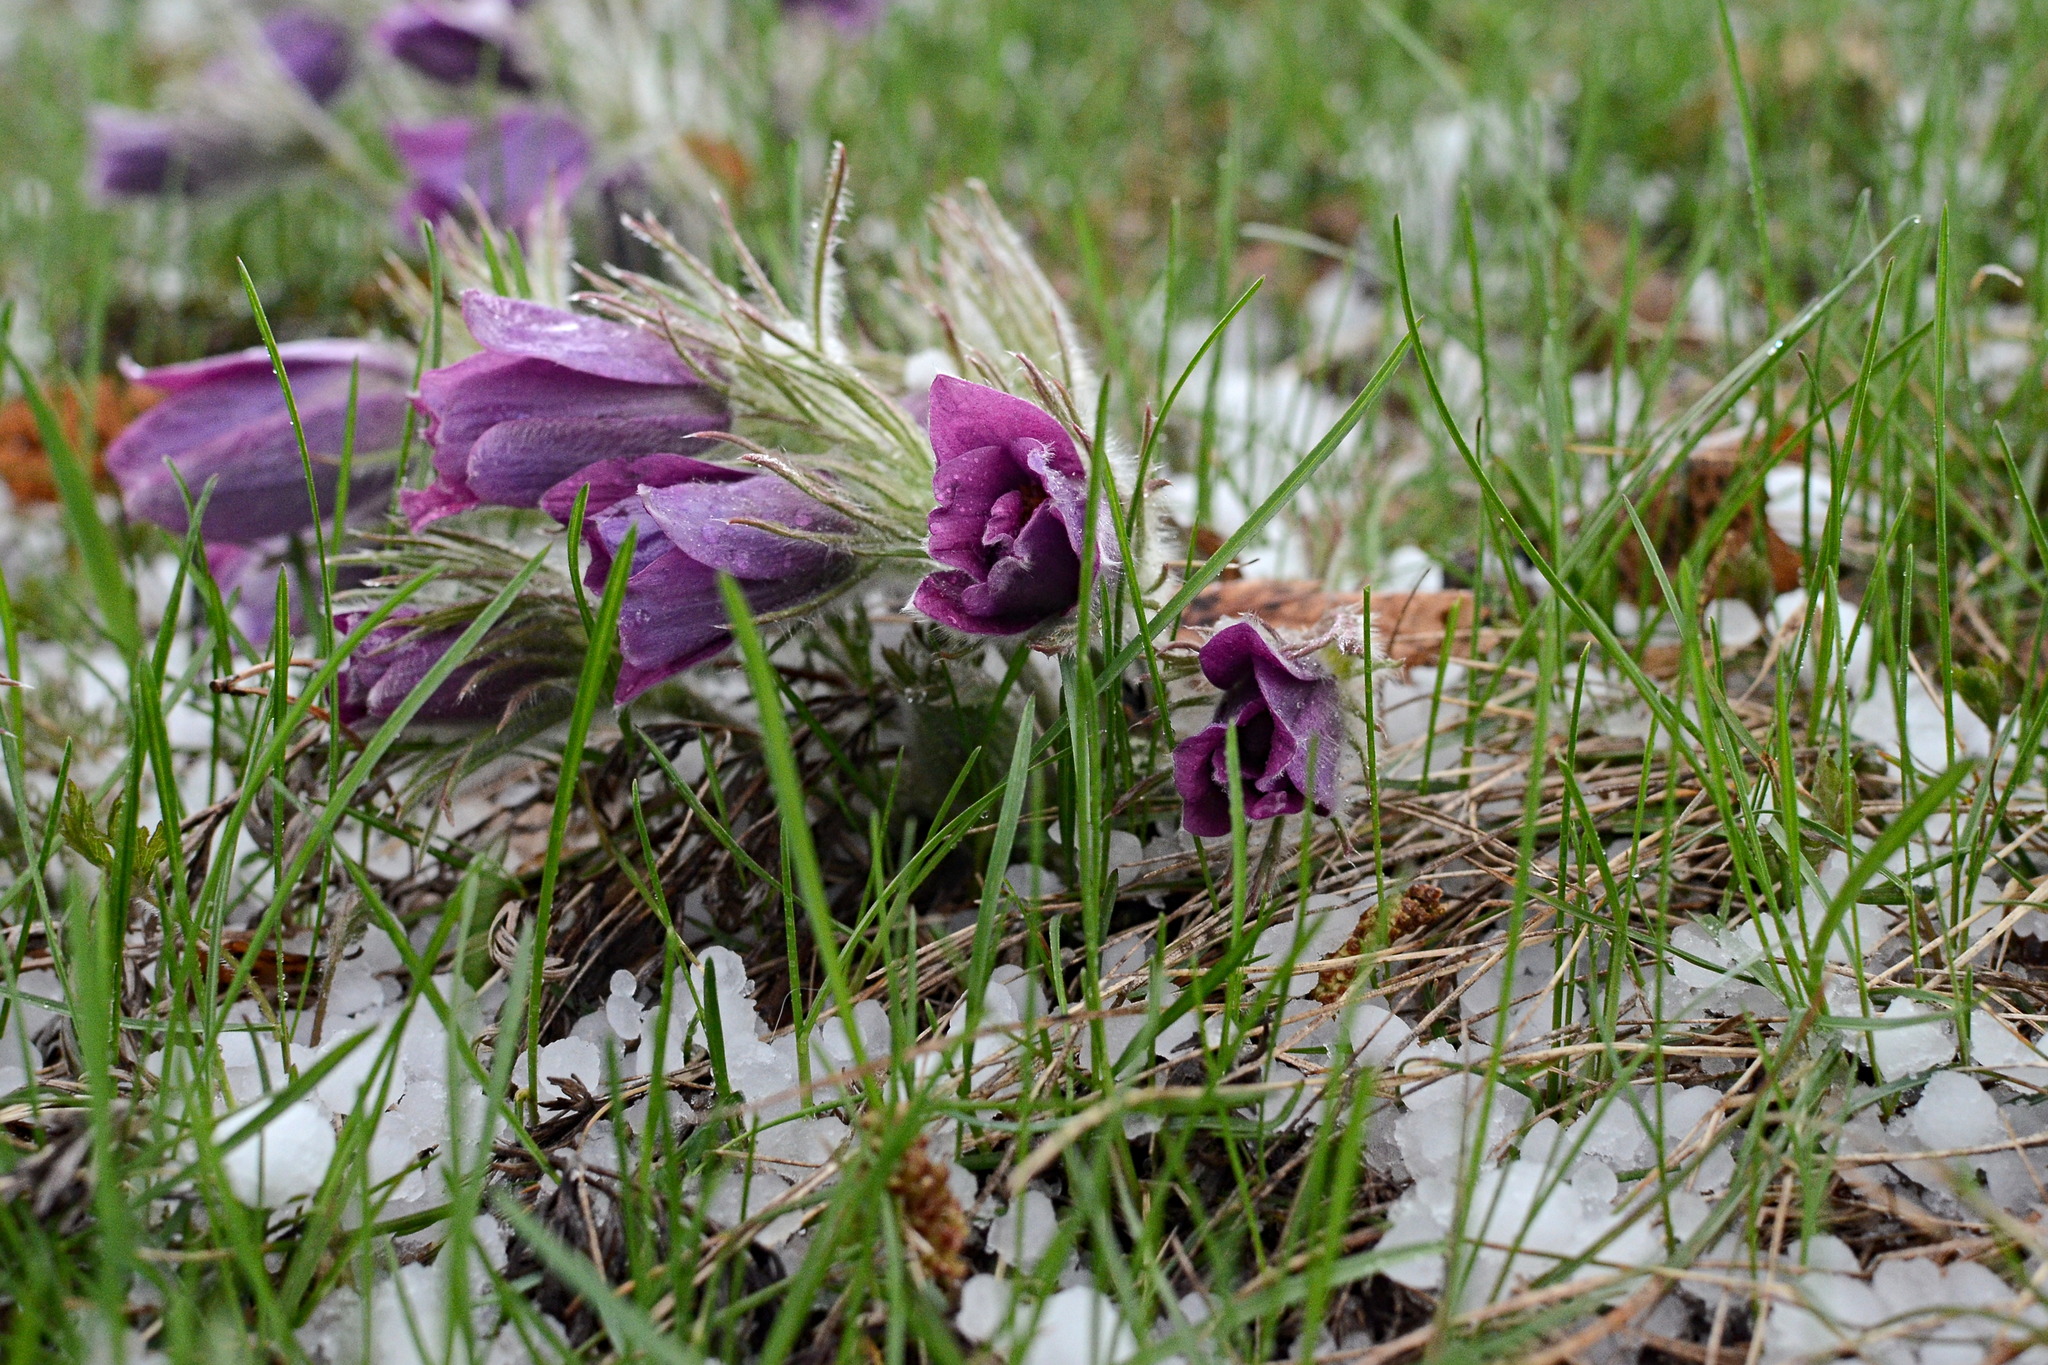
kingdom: Plantae
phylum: Tracheophyta
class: Magnoliopsida
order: Ranunculales
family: Ranunculaceae
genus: Pulsatilla
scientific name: Pulsatilla turczaninovii
